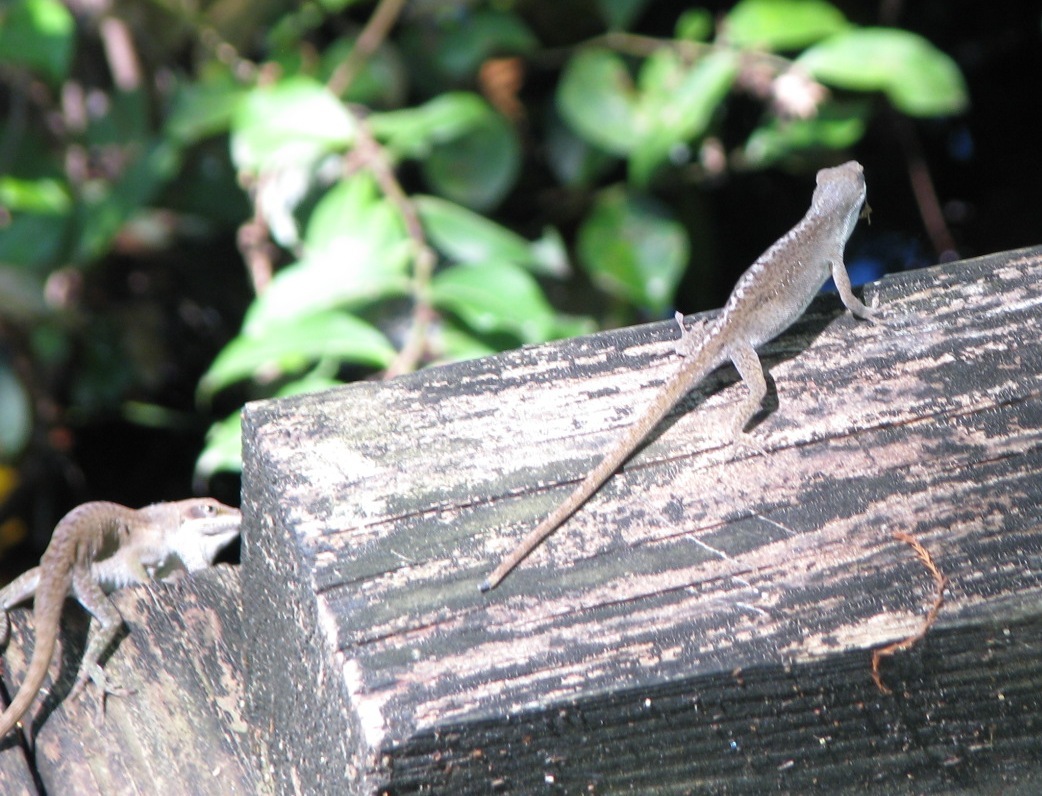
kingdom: Animalia
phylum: Chordata
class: Squamata
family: Dactyloidae
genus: Anolis
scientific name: Anolis carolinensis
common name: Green anole
